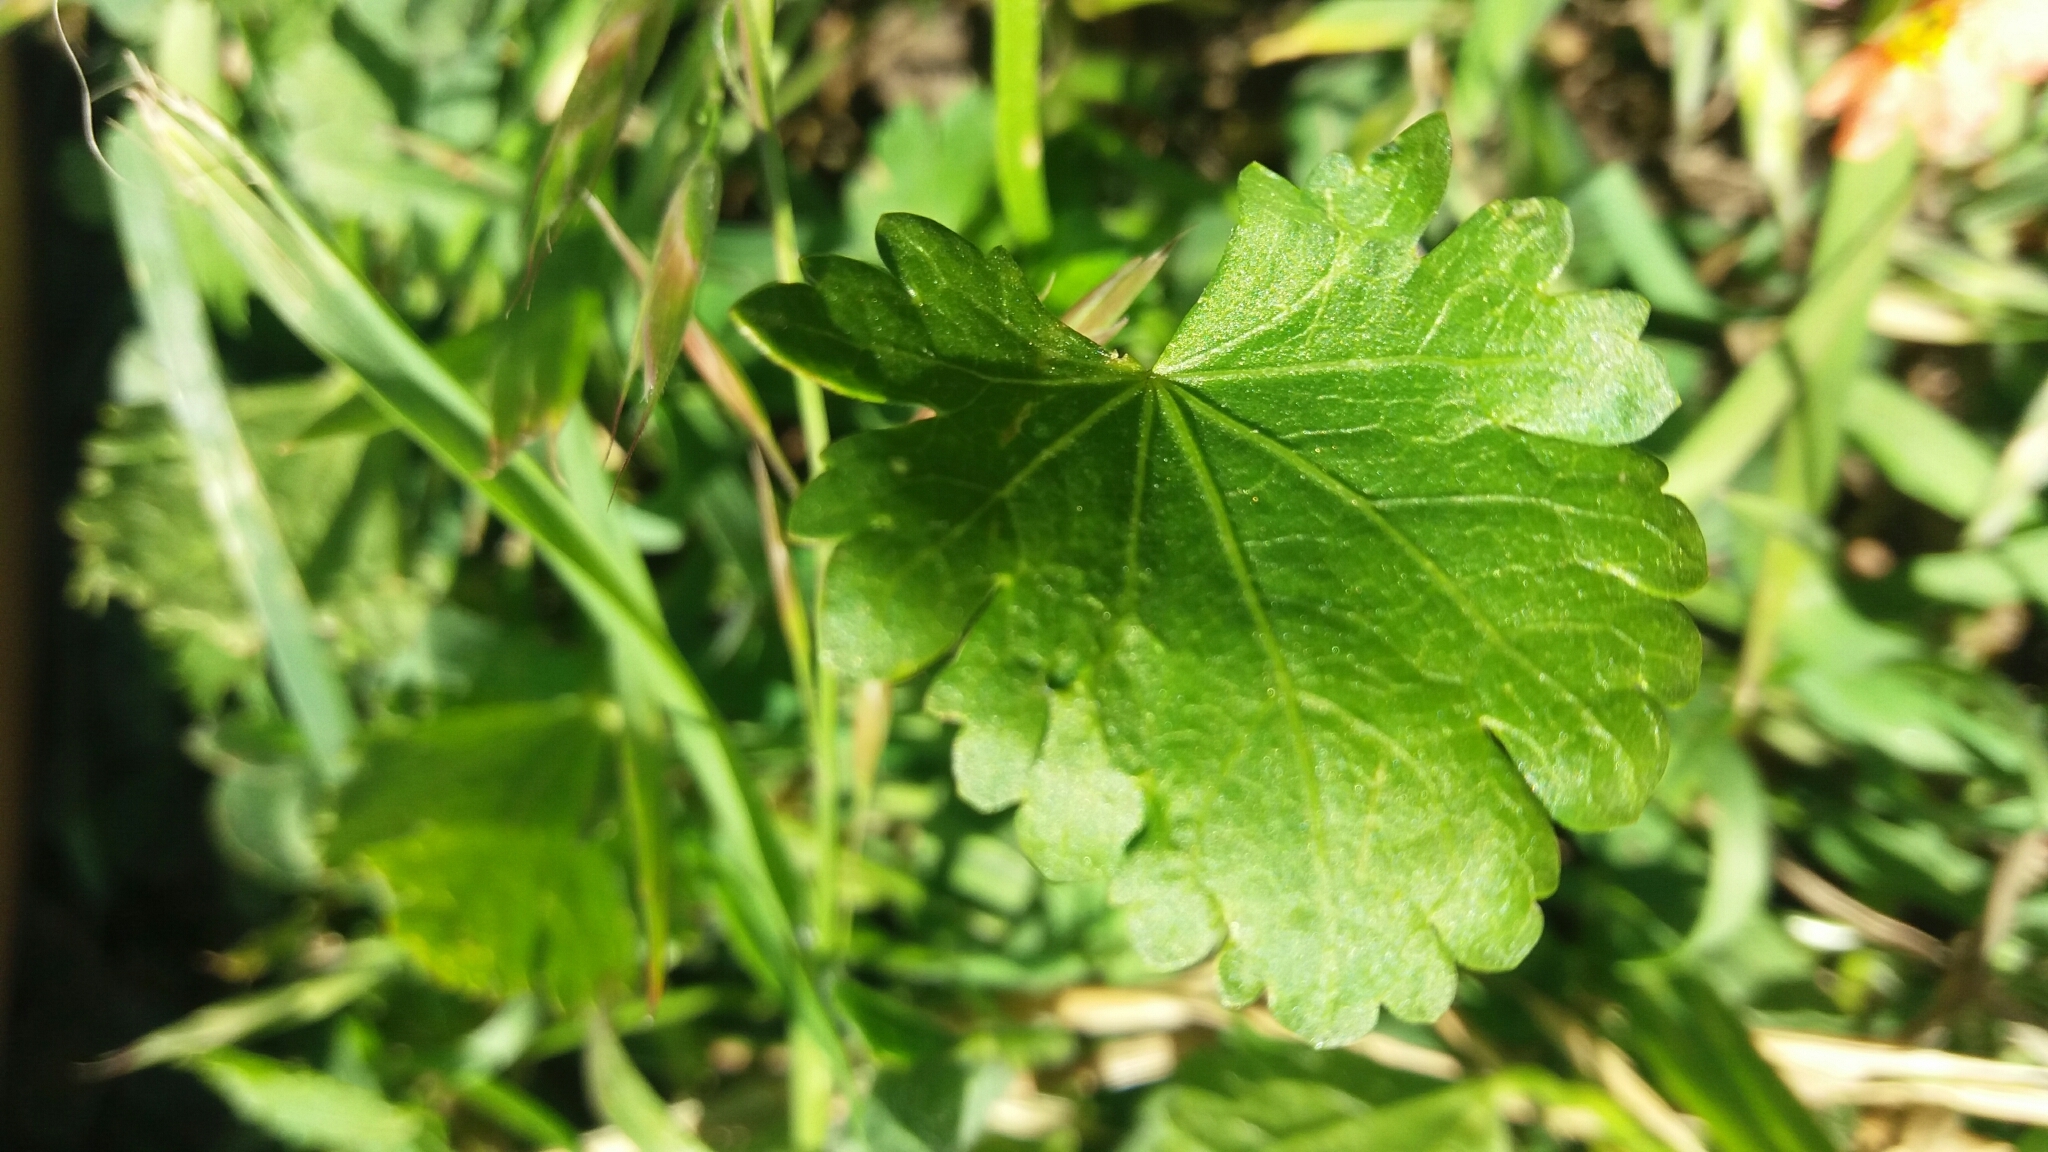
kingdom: Plantae
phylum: Tracheophyta
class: Magnoliopsida
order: Malvales
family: Malvaceae
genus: Modiola
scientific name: Modiola caroliniana
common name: Carolina bristlemallow
